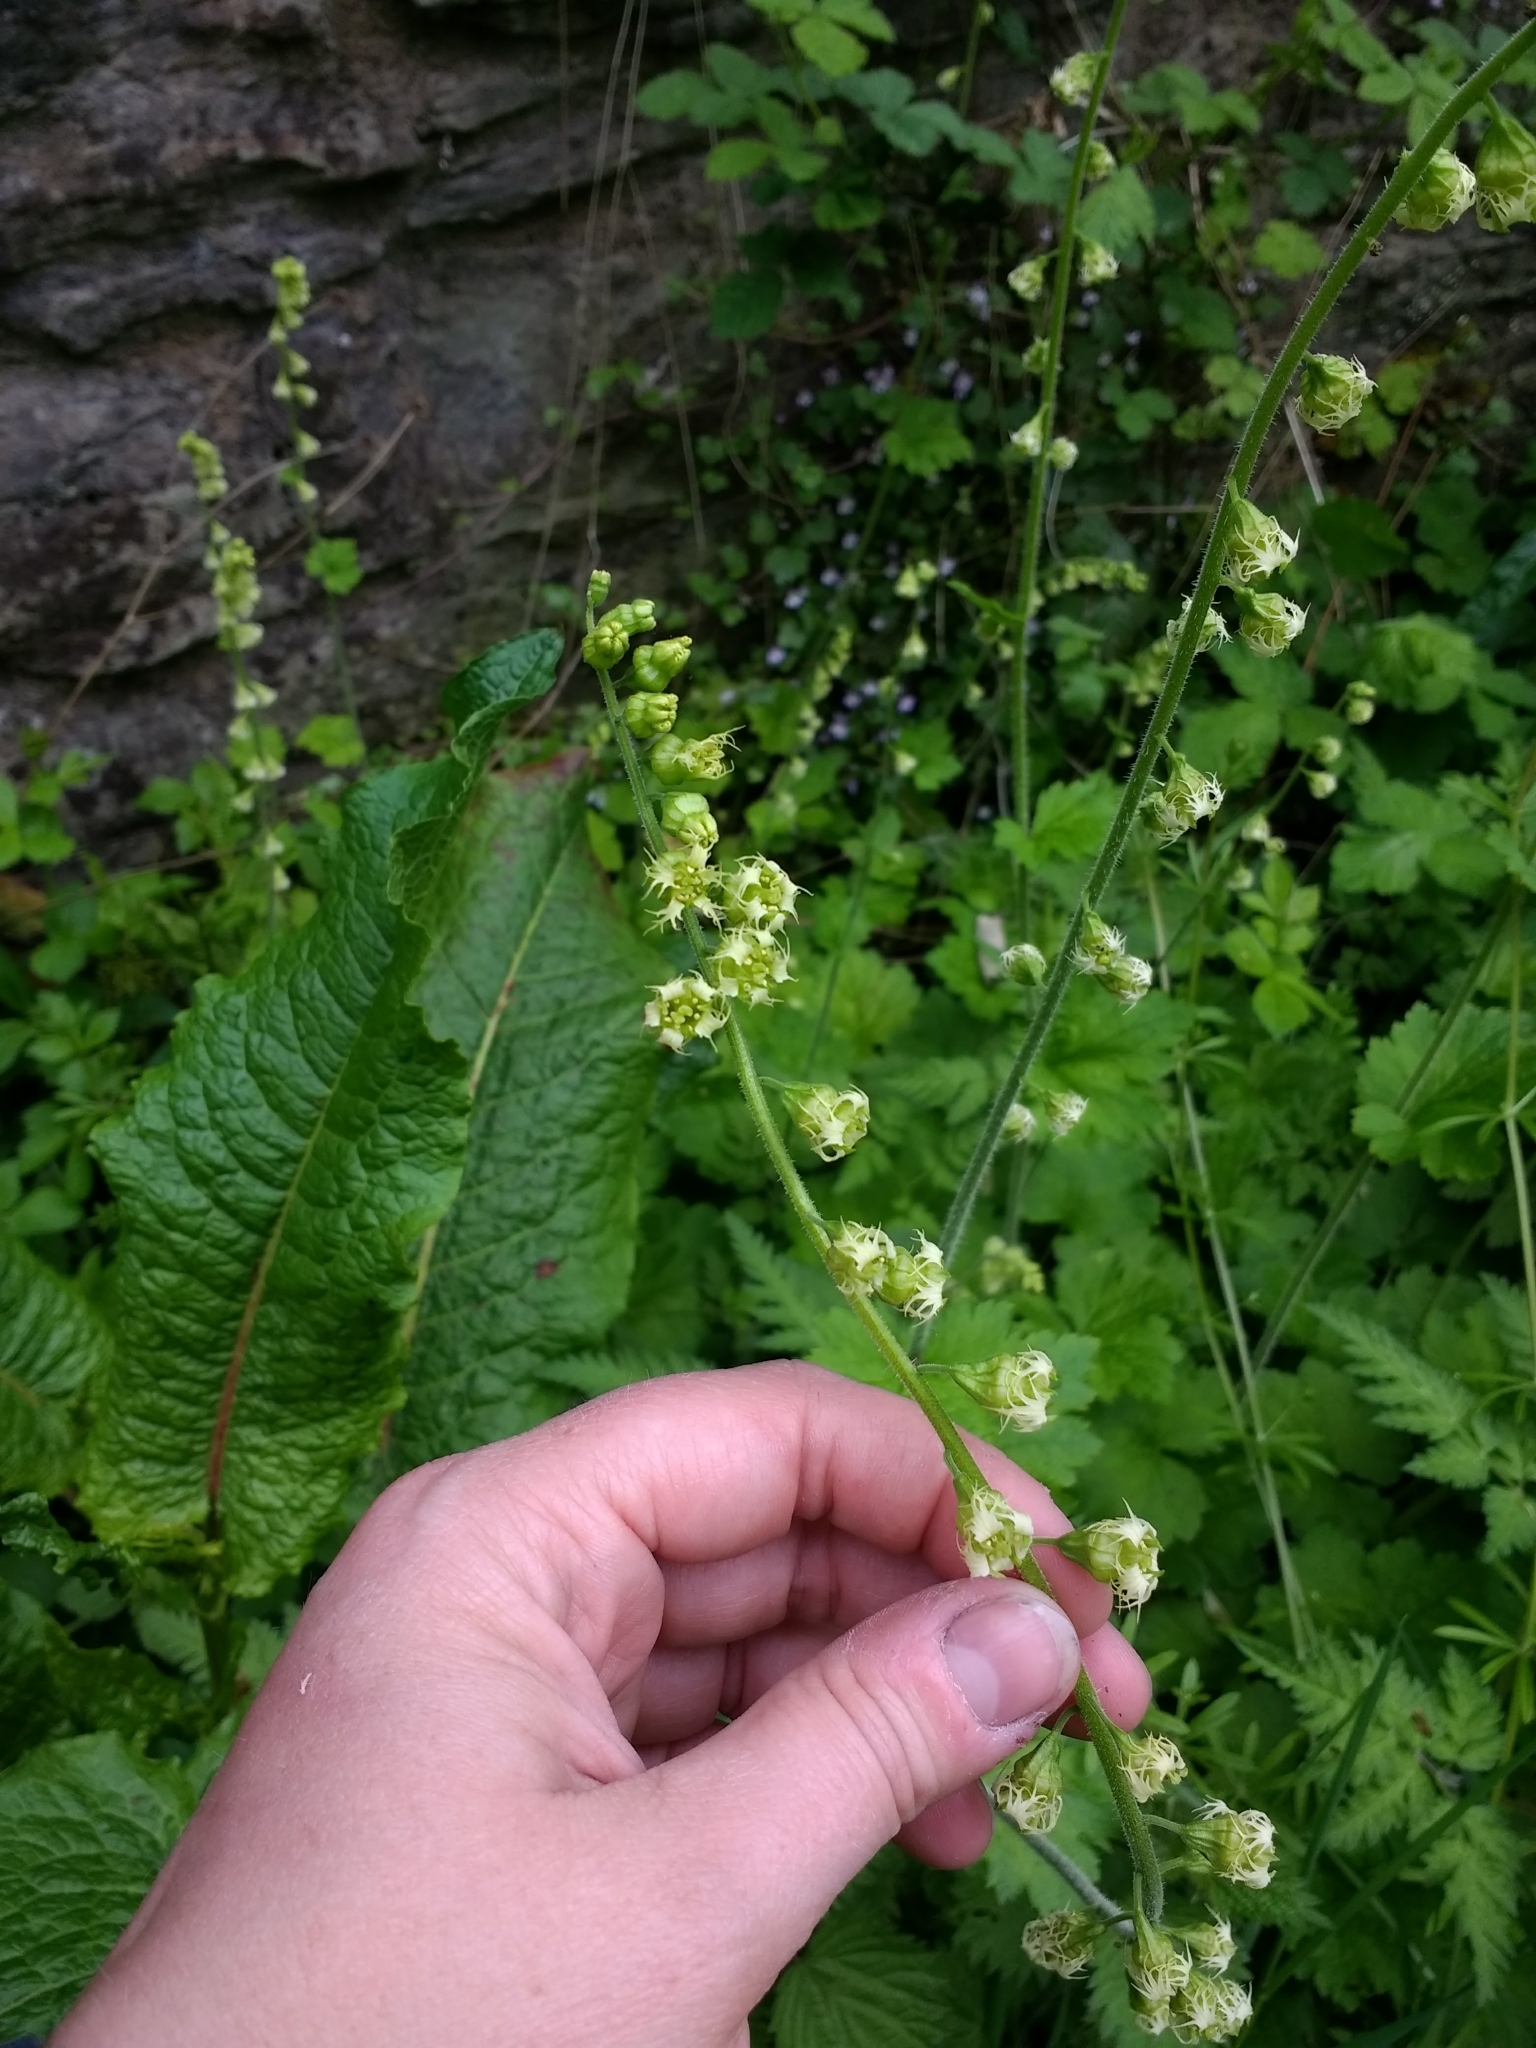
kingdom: Plantae
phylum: Tracheophyta
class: Magnoliopsida
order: Saxifragales
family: Saxifragaceae
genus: Tellima
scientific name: Tellima grandiflora
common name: Fringecups
